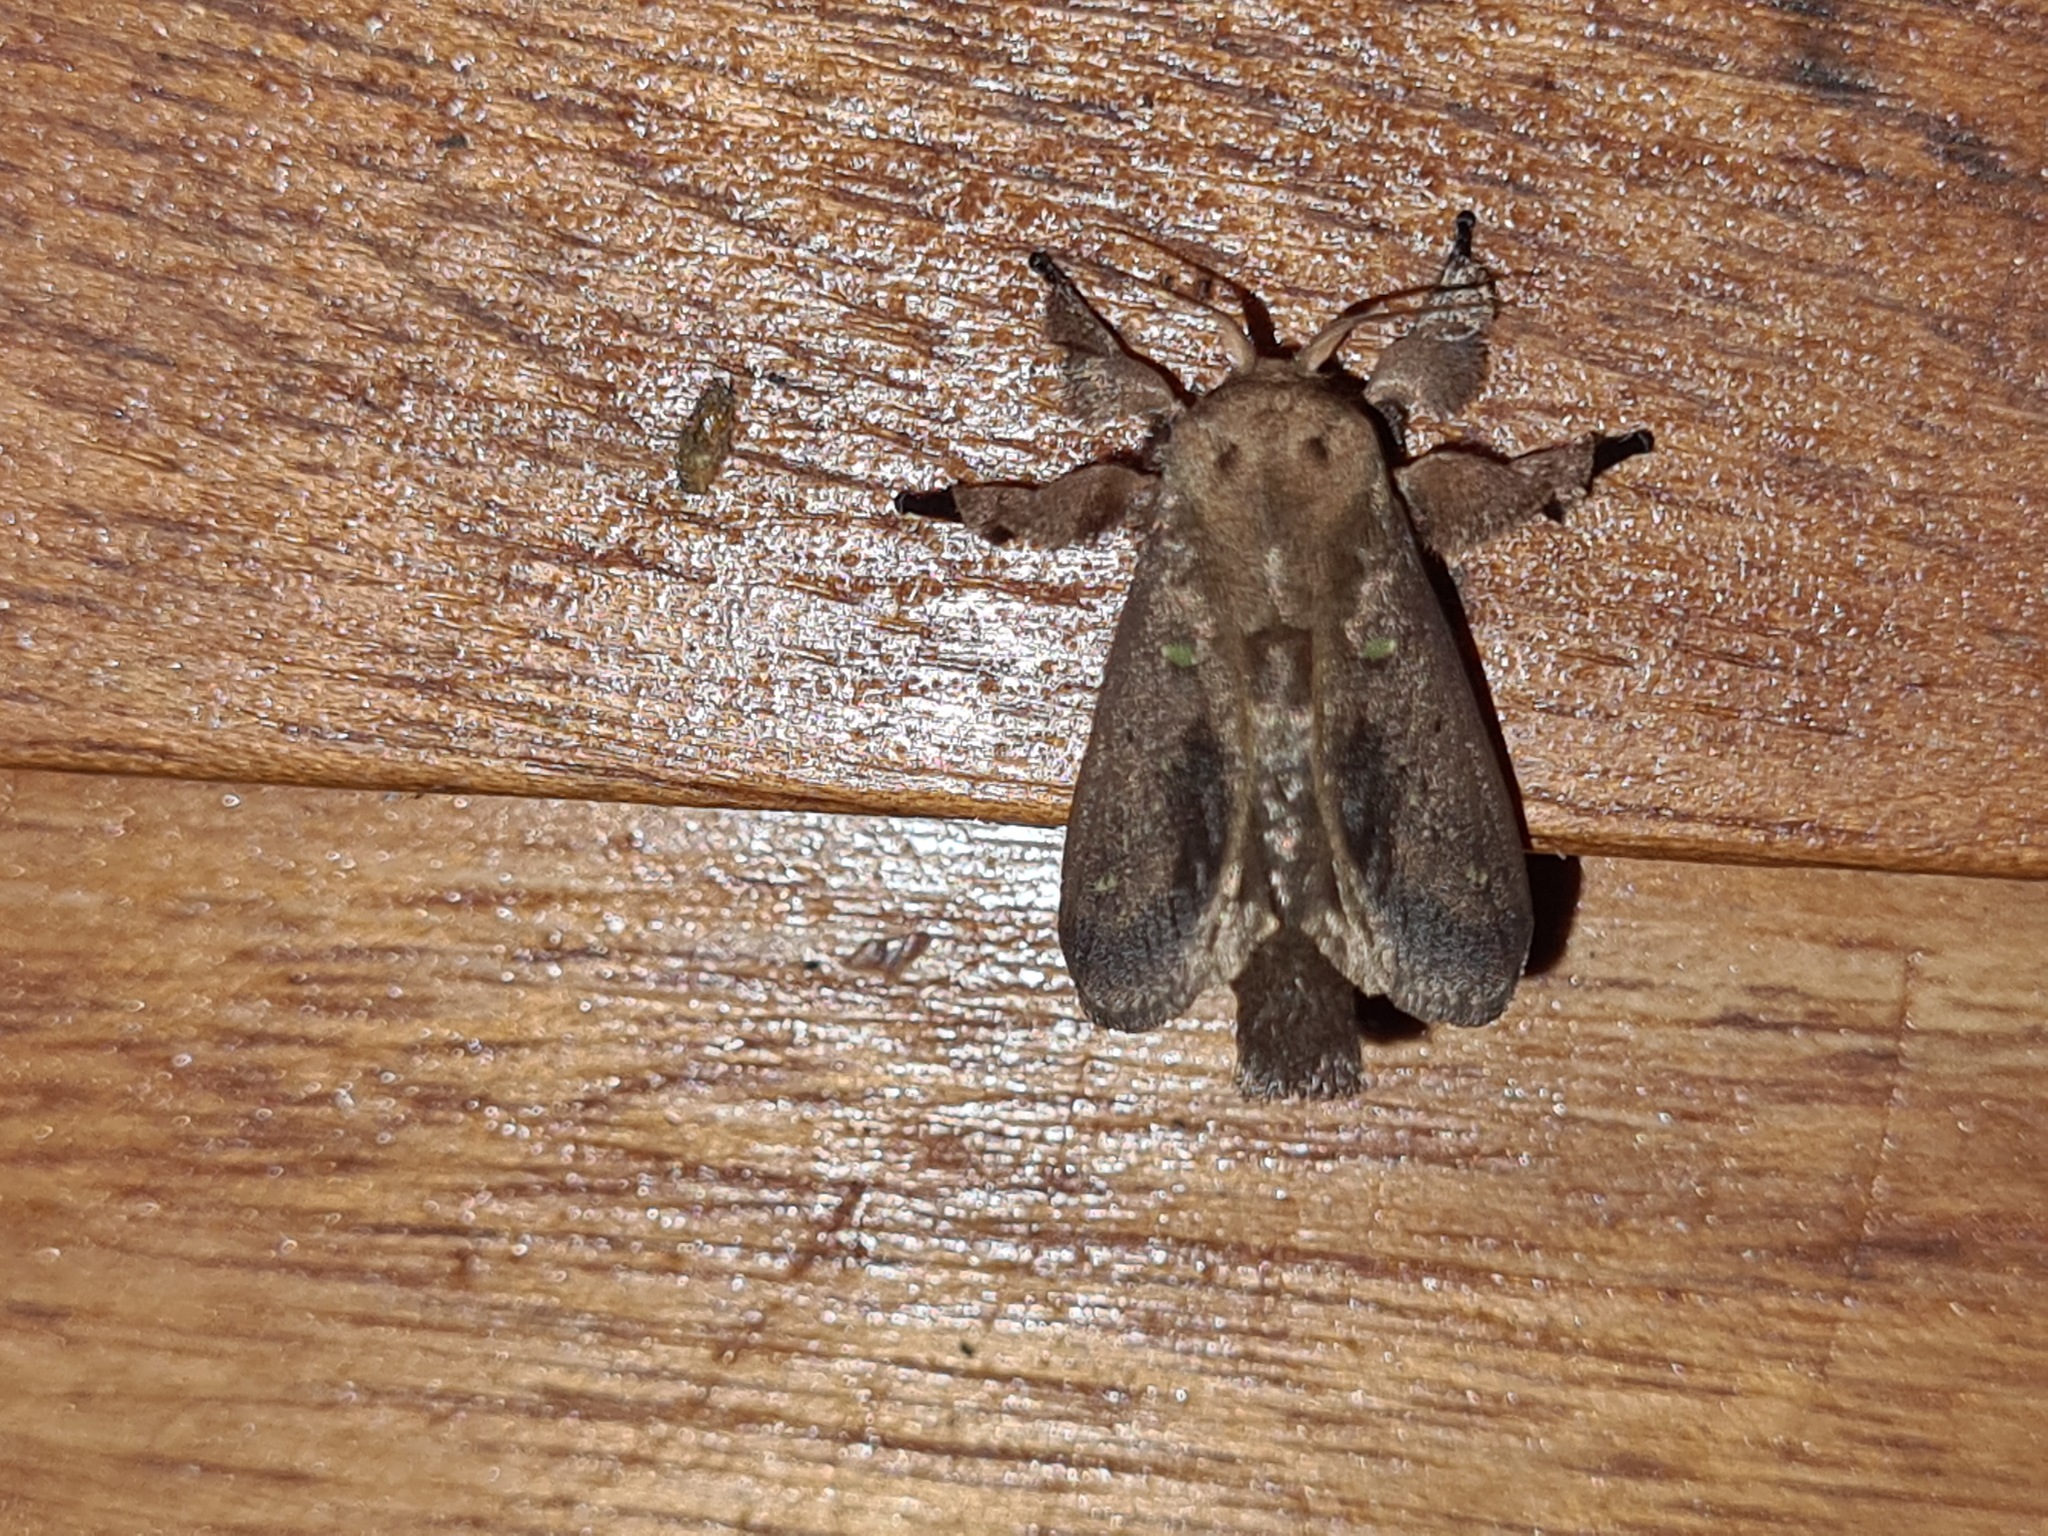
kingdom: Animalia
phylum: Arthropoda
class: Insecta
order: Lepidoptera
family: Limacodidae
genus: Euclea
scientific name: Euclea norba
